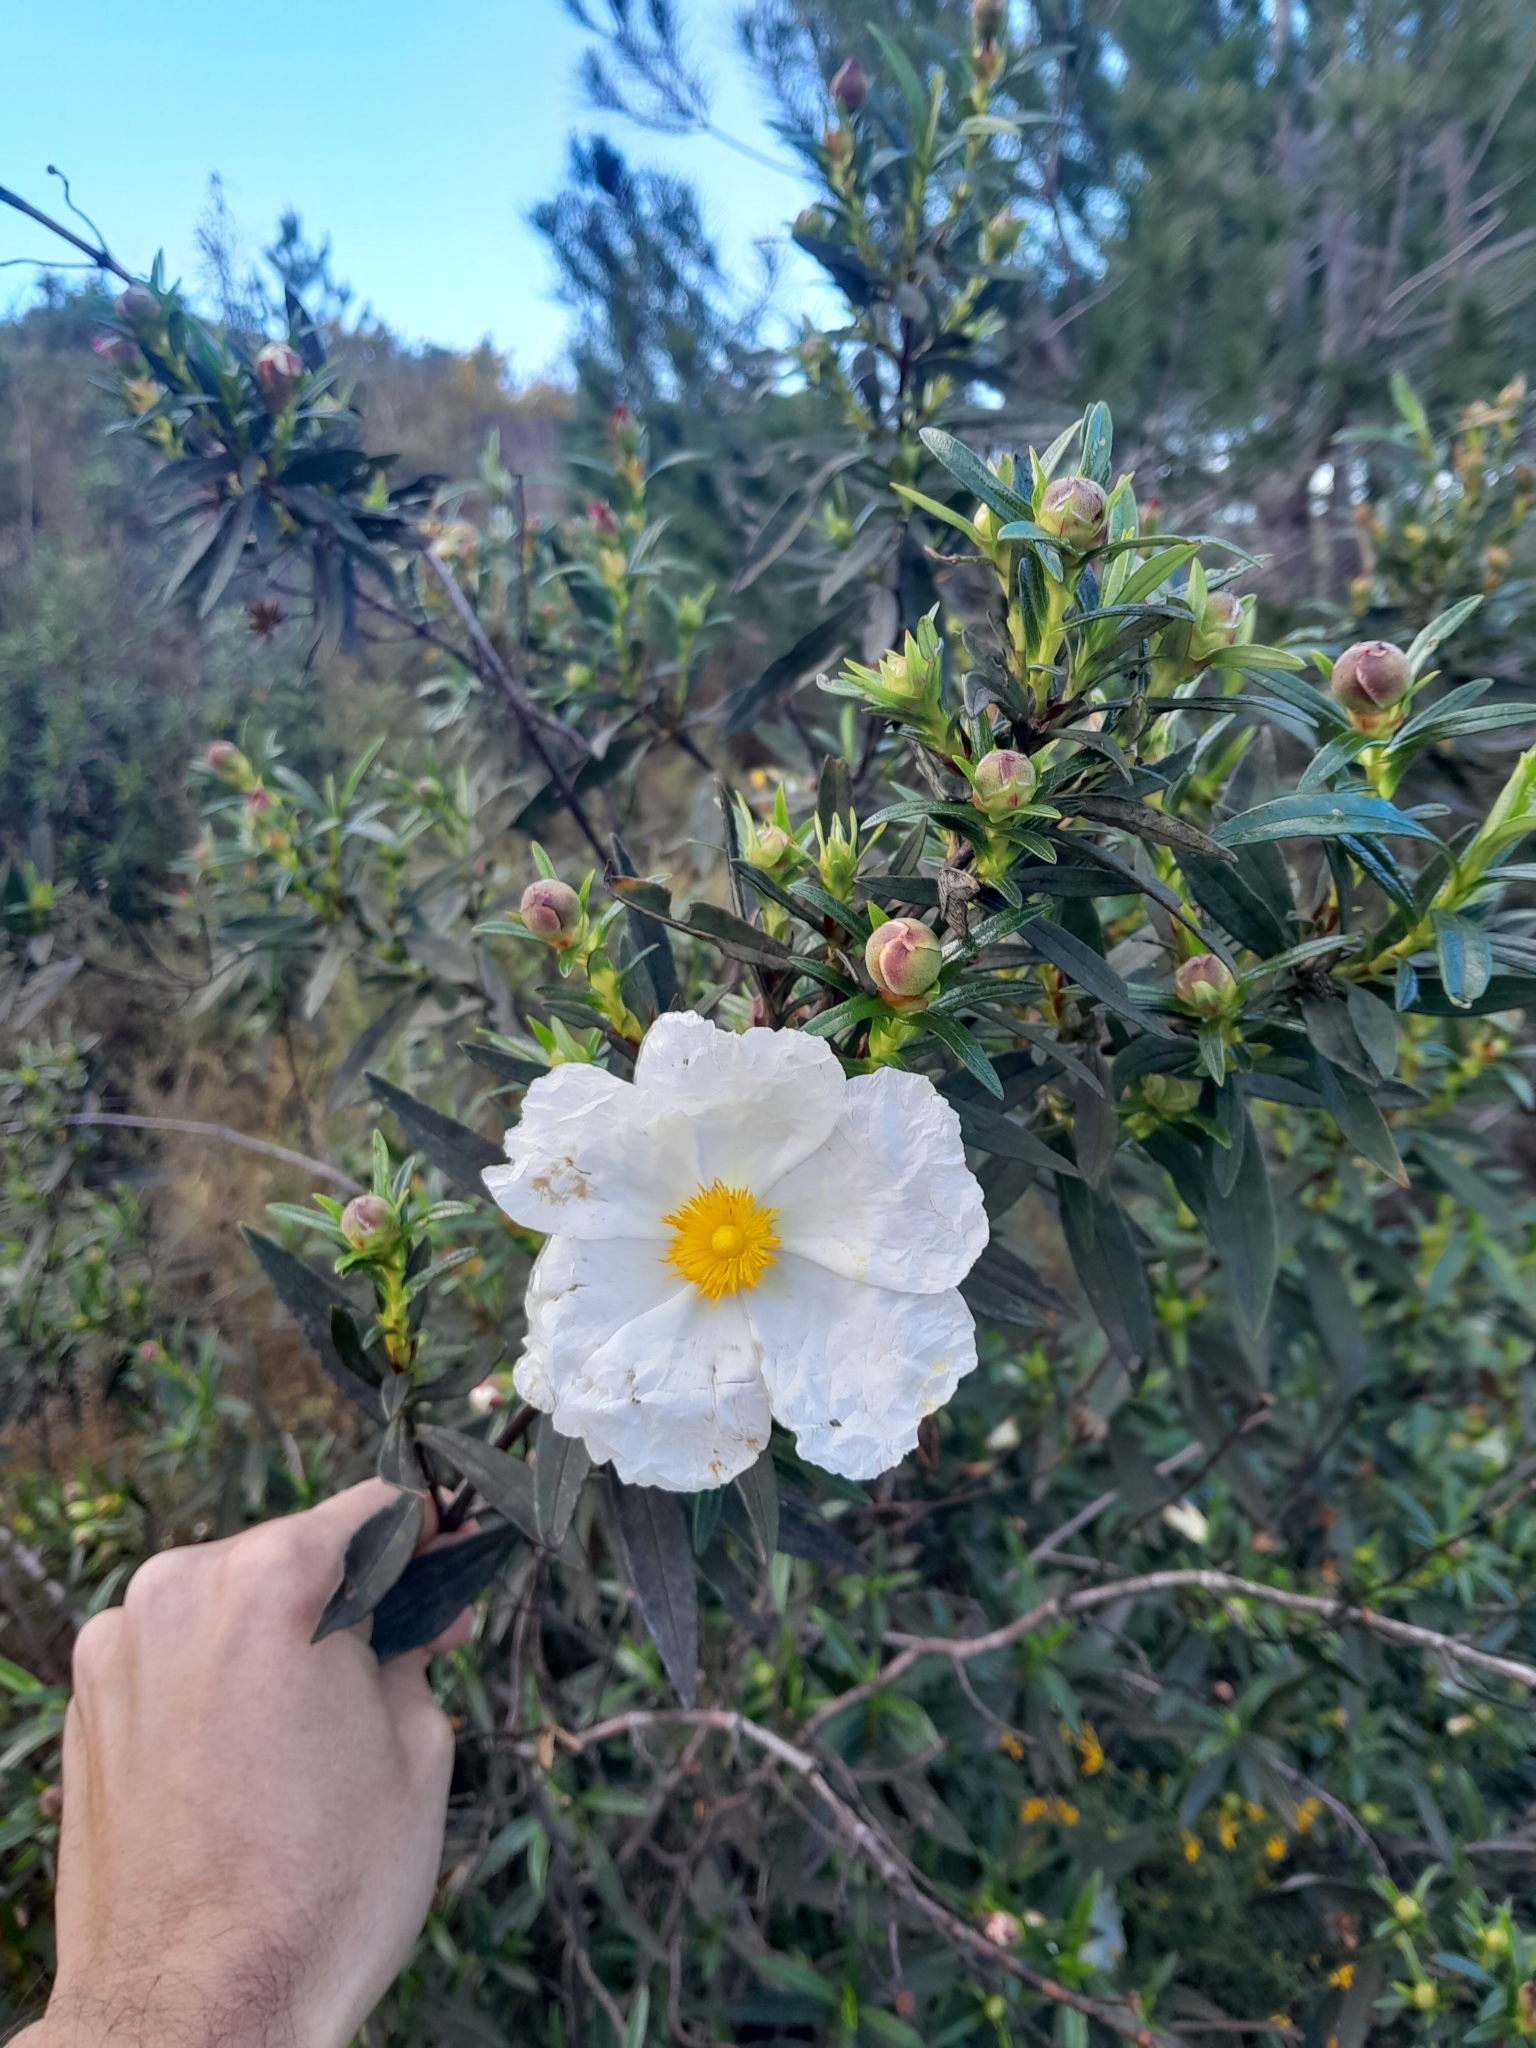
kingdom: Plantae
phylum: Tracheophyta
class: Magnoliopsida
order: Malvales
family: Cistaceae
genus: Cistus
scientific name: Cistus ladanifer
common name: Common gum cistus
